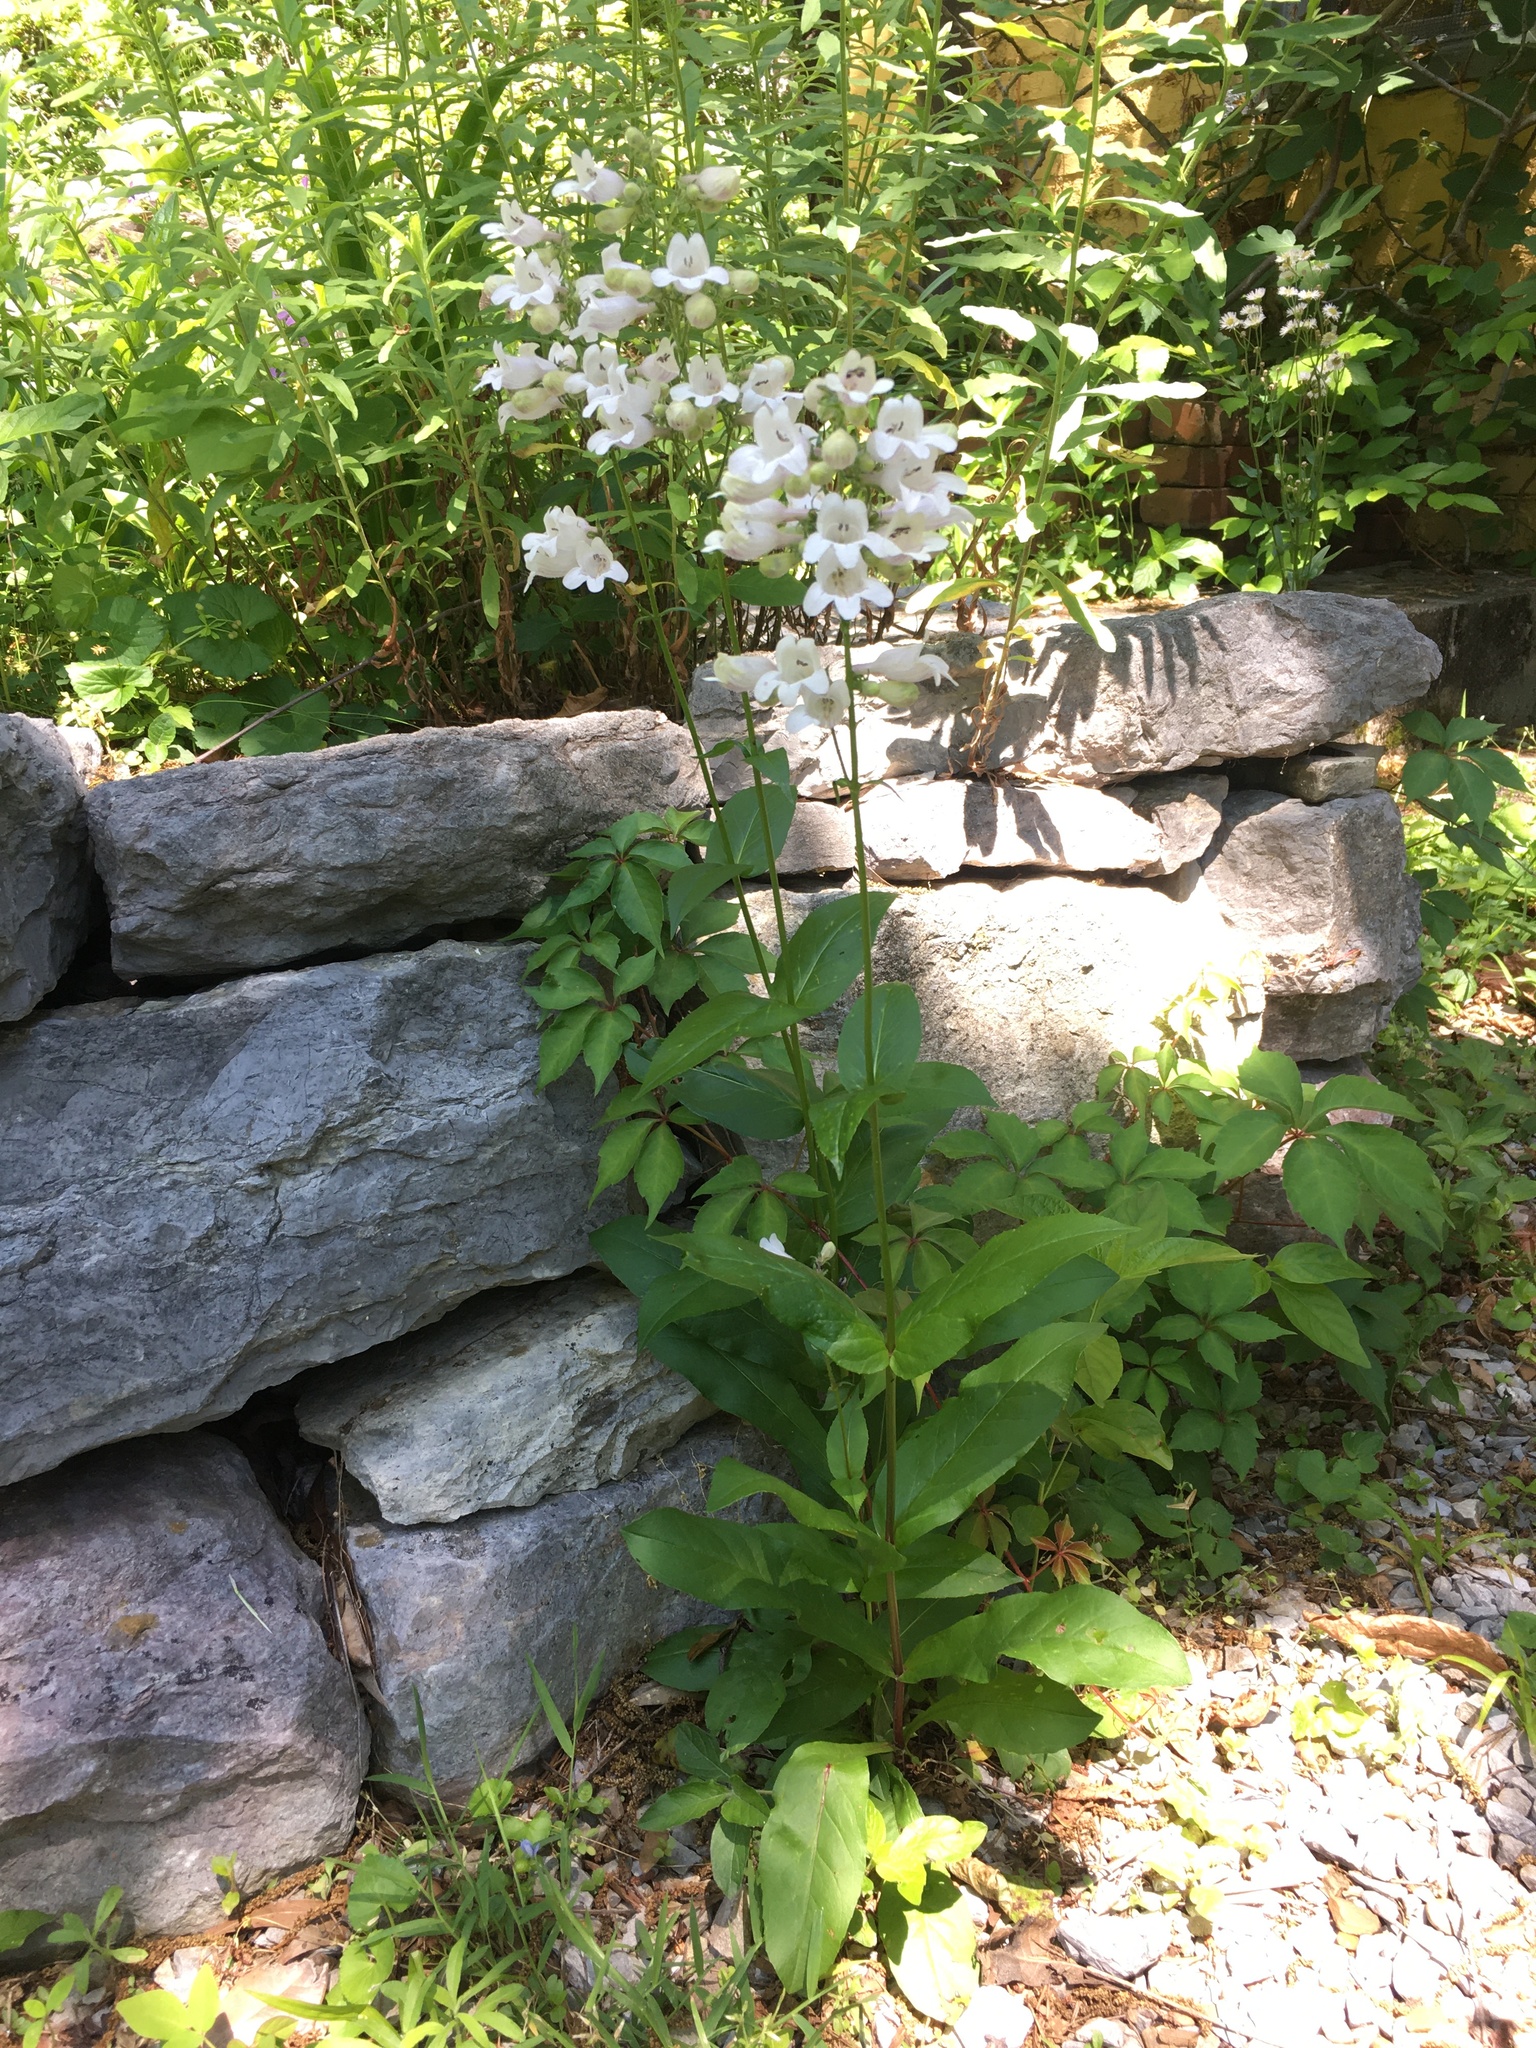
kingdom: Plantae
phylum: Tracheophyta
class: Magnoliopsida
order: Lamiales
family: Plantaginaceae
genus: Penstemon
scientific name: Penstemon digitalis
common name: Foxglove beardtongue
